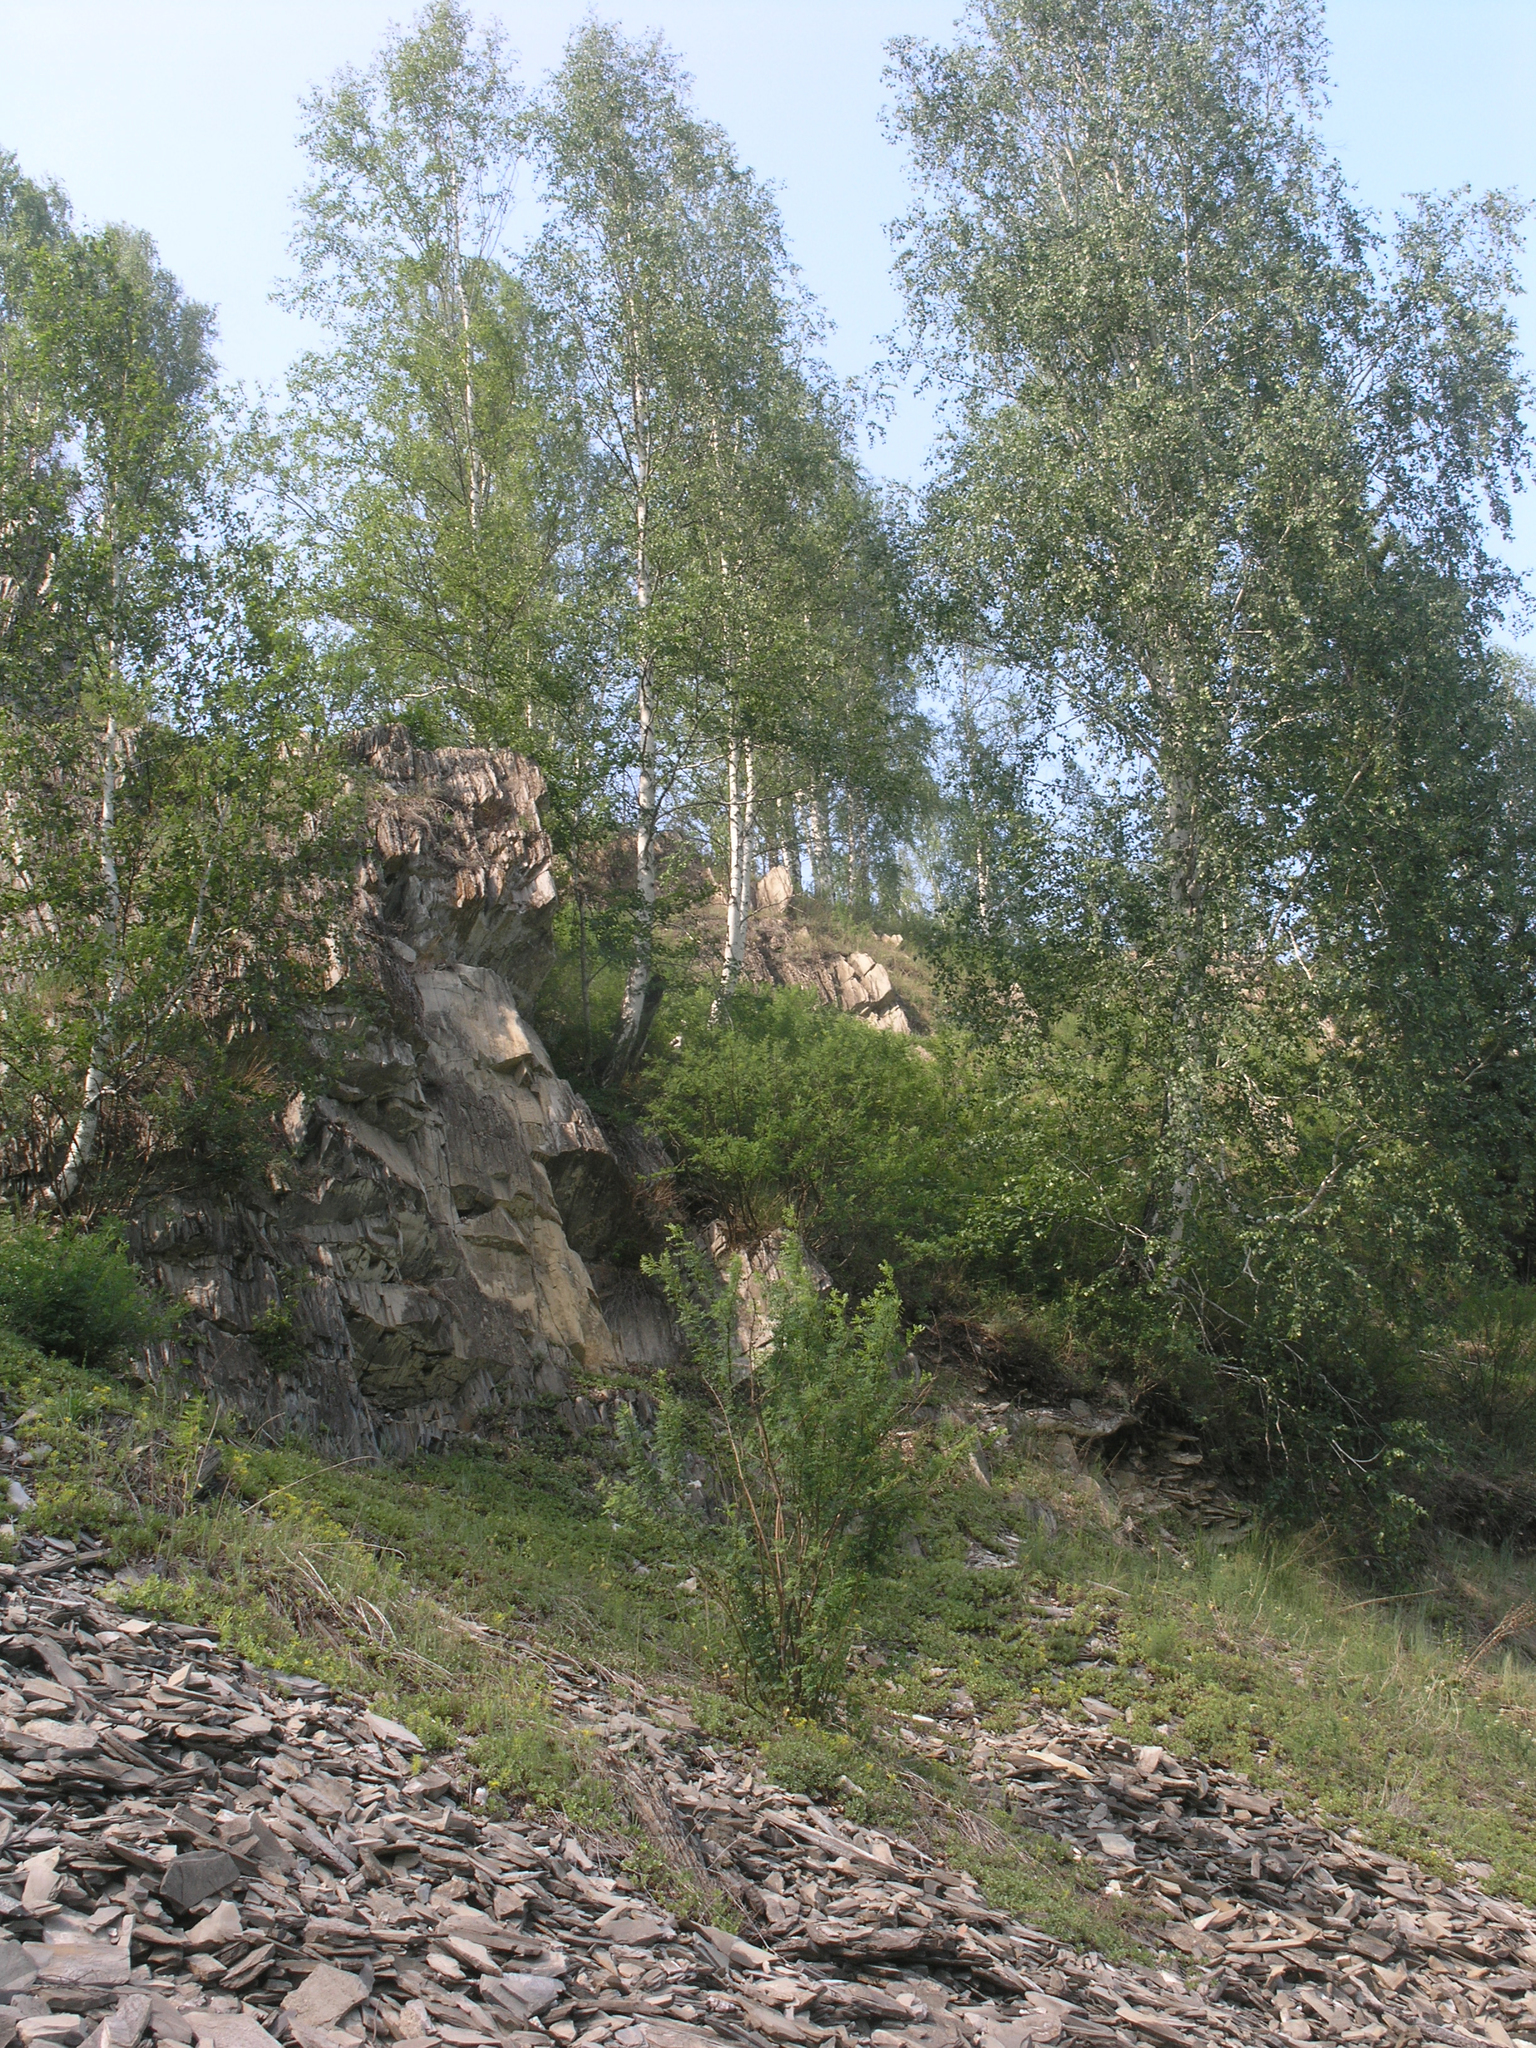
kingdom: Plantae
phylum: Tracheophyta
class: Magnoliopsida
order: Fagales
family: Betulaceae
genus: Betula
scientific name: Betula pendula
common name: Silver birch
